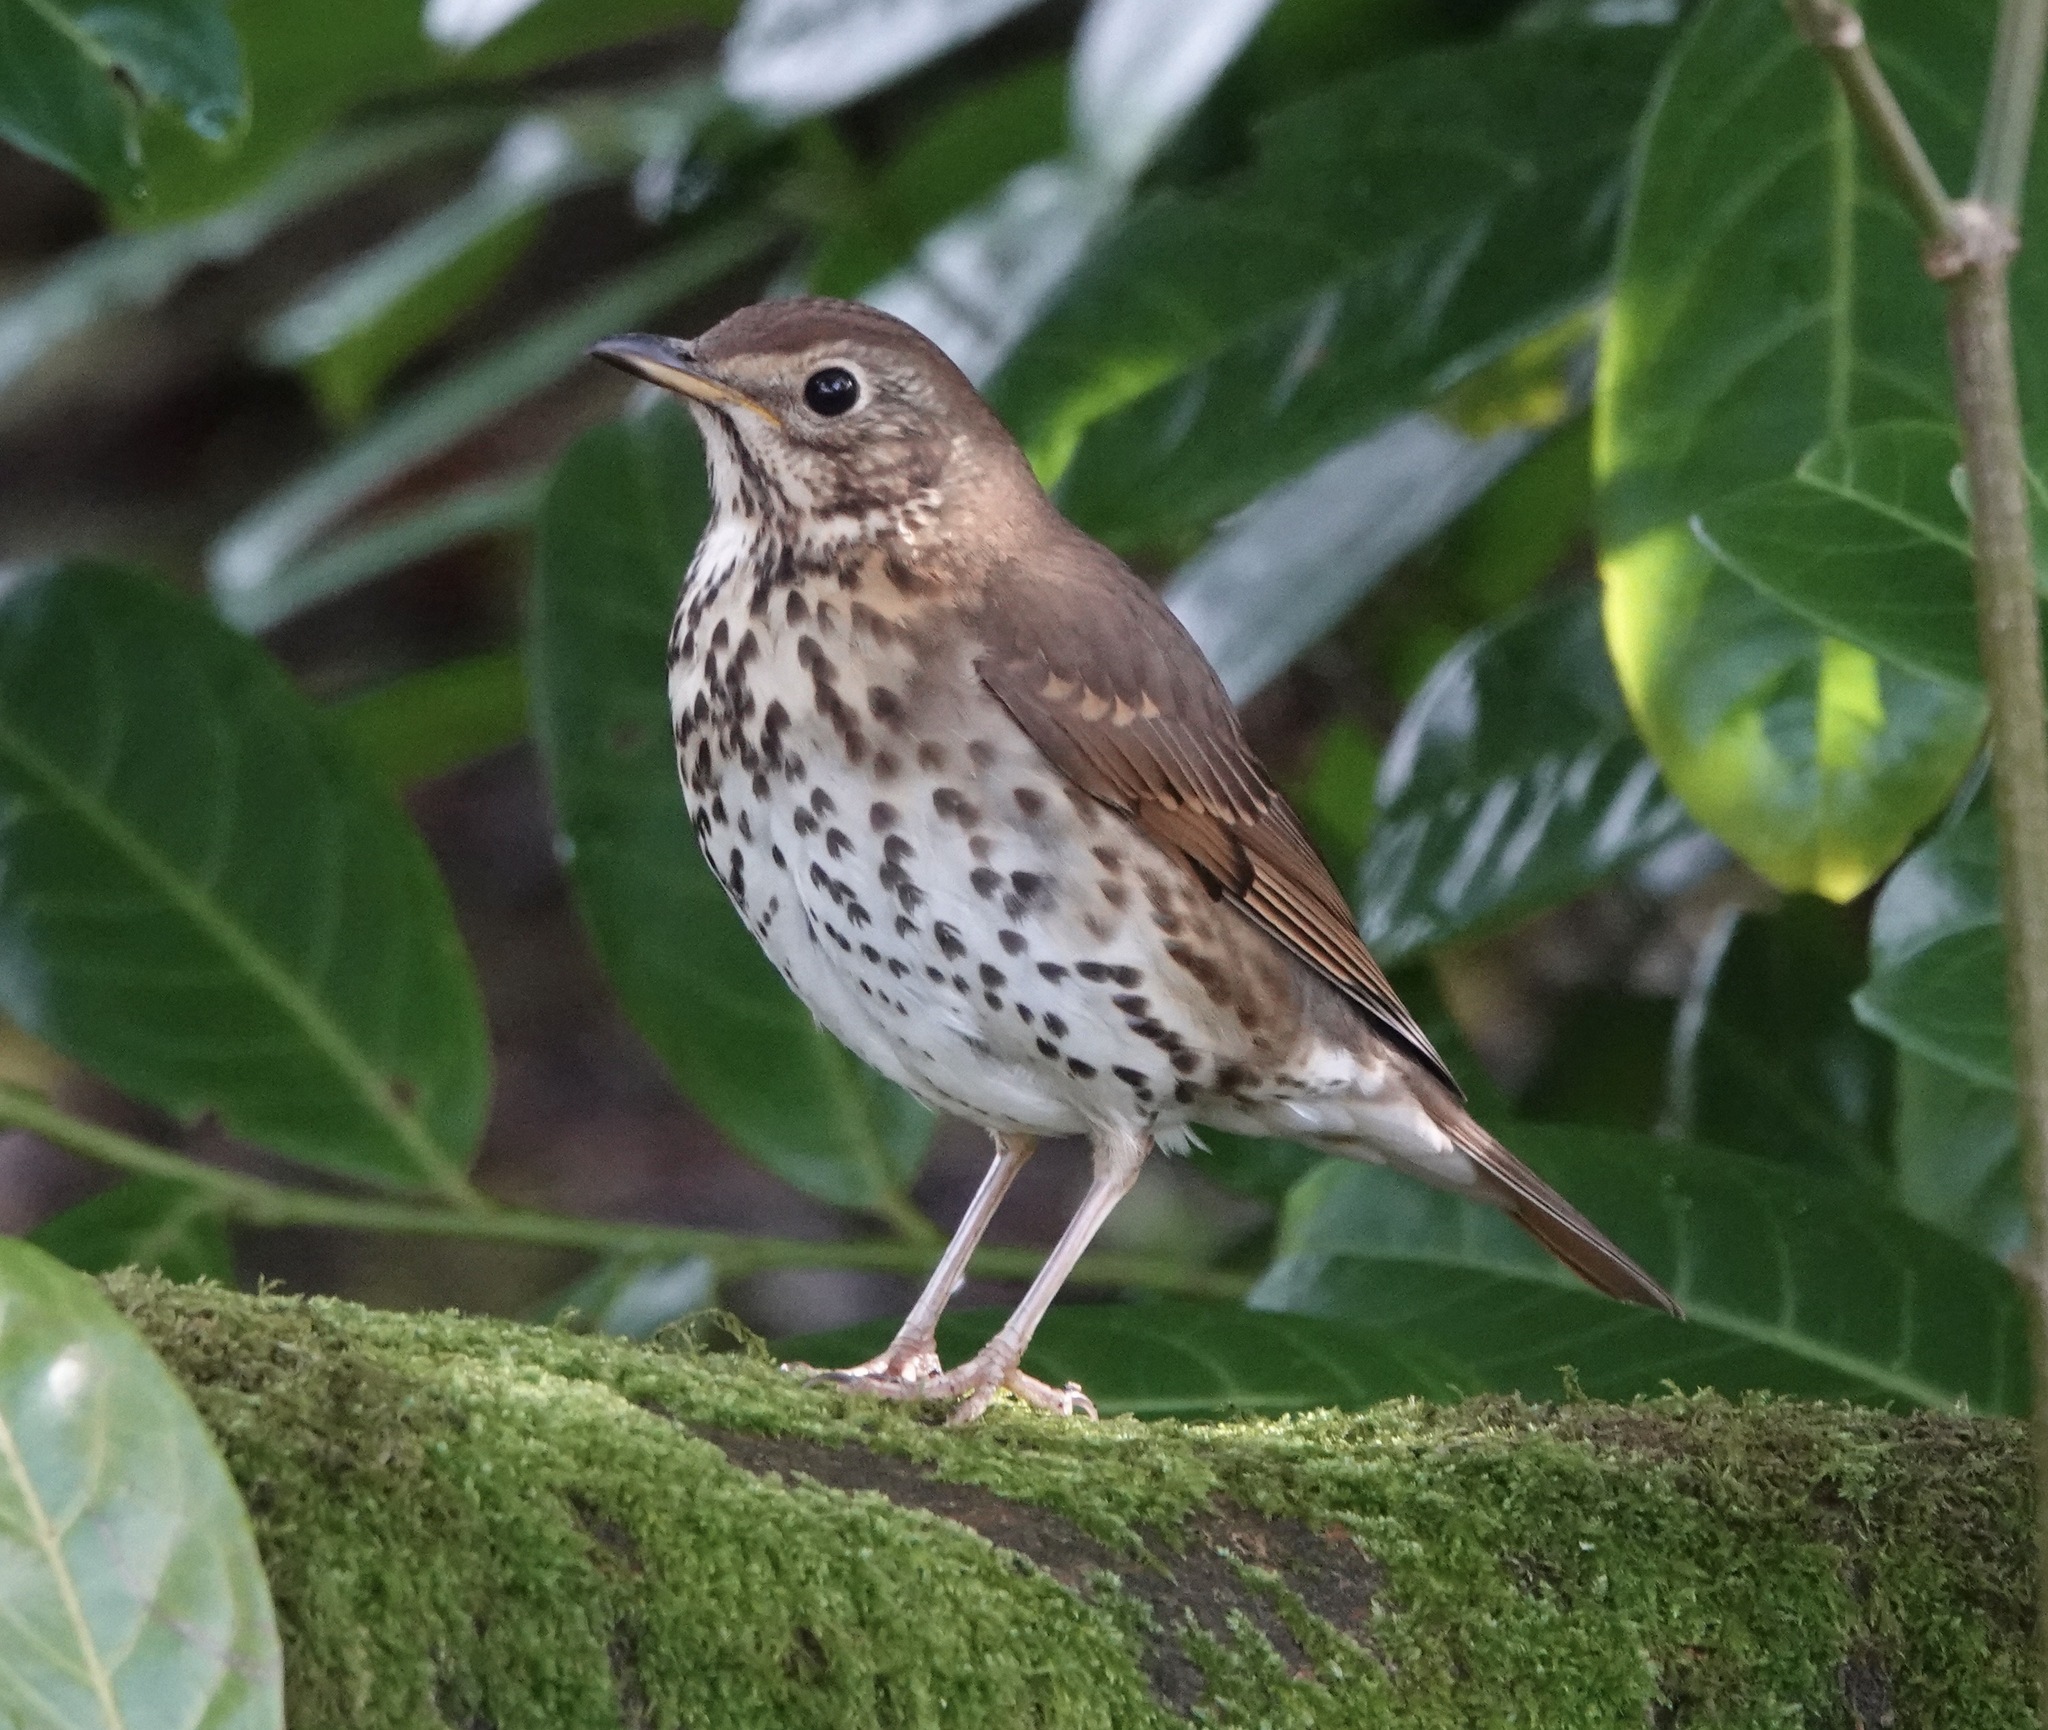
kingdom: Animalia
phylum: Chordata
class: Aves
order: Passeriformes
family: Turdidae
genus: Turdus
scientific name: Turdus philomelos
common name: Song thrush
